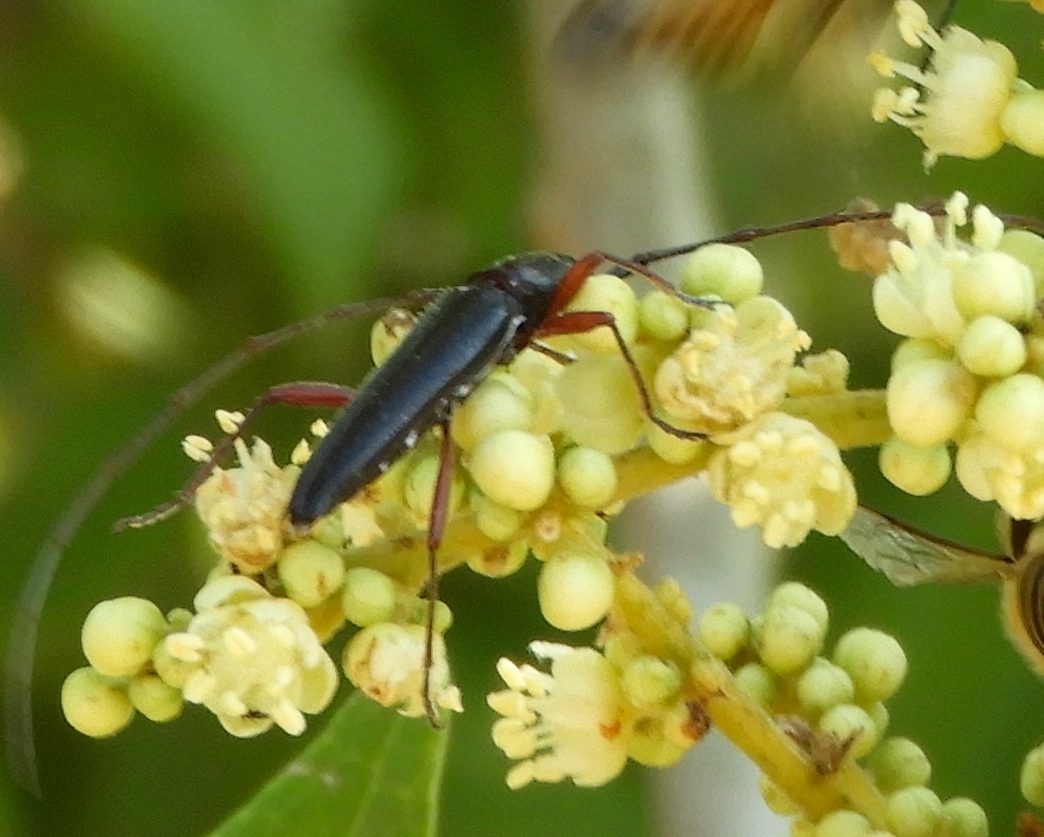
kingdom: Animalia
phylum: Arthropoda
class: Insecta
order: Coleoptera
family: Cerambycidae
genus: Stenosphenus
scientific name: Stenosphenus
